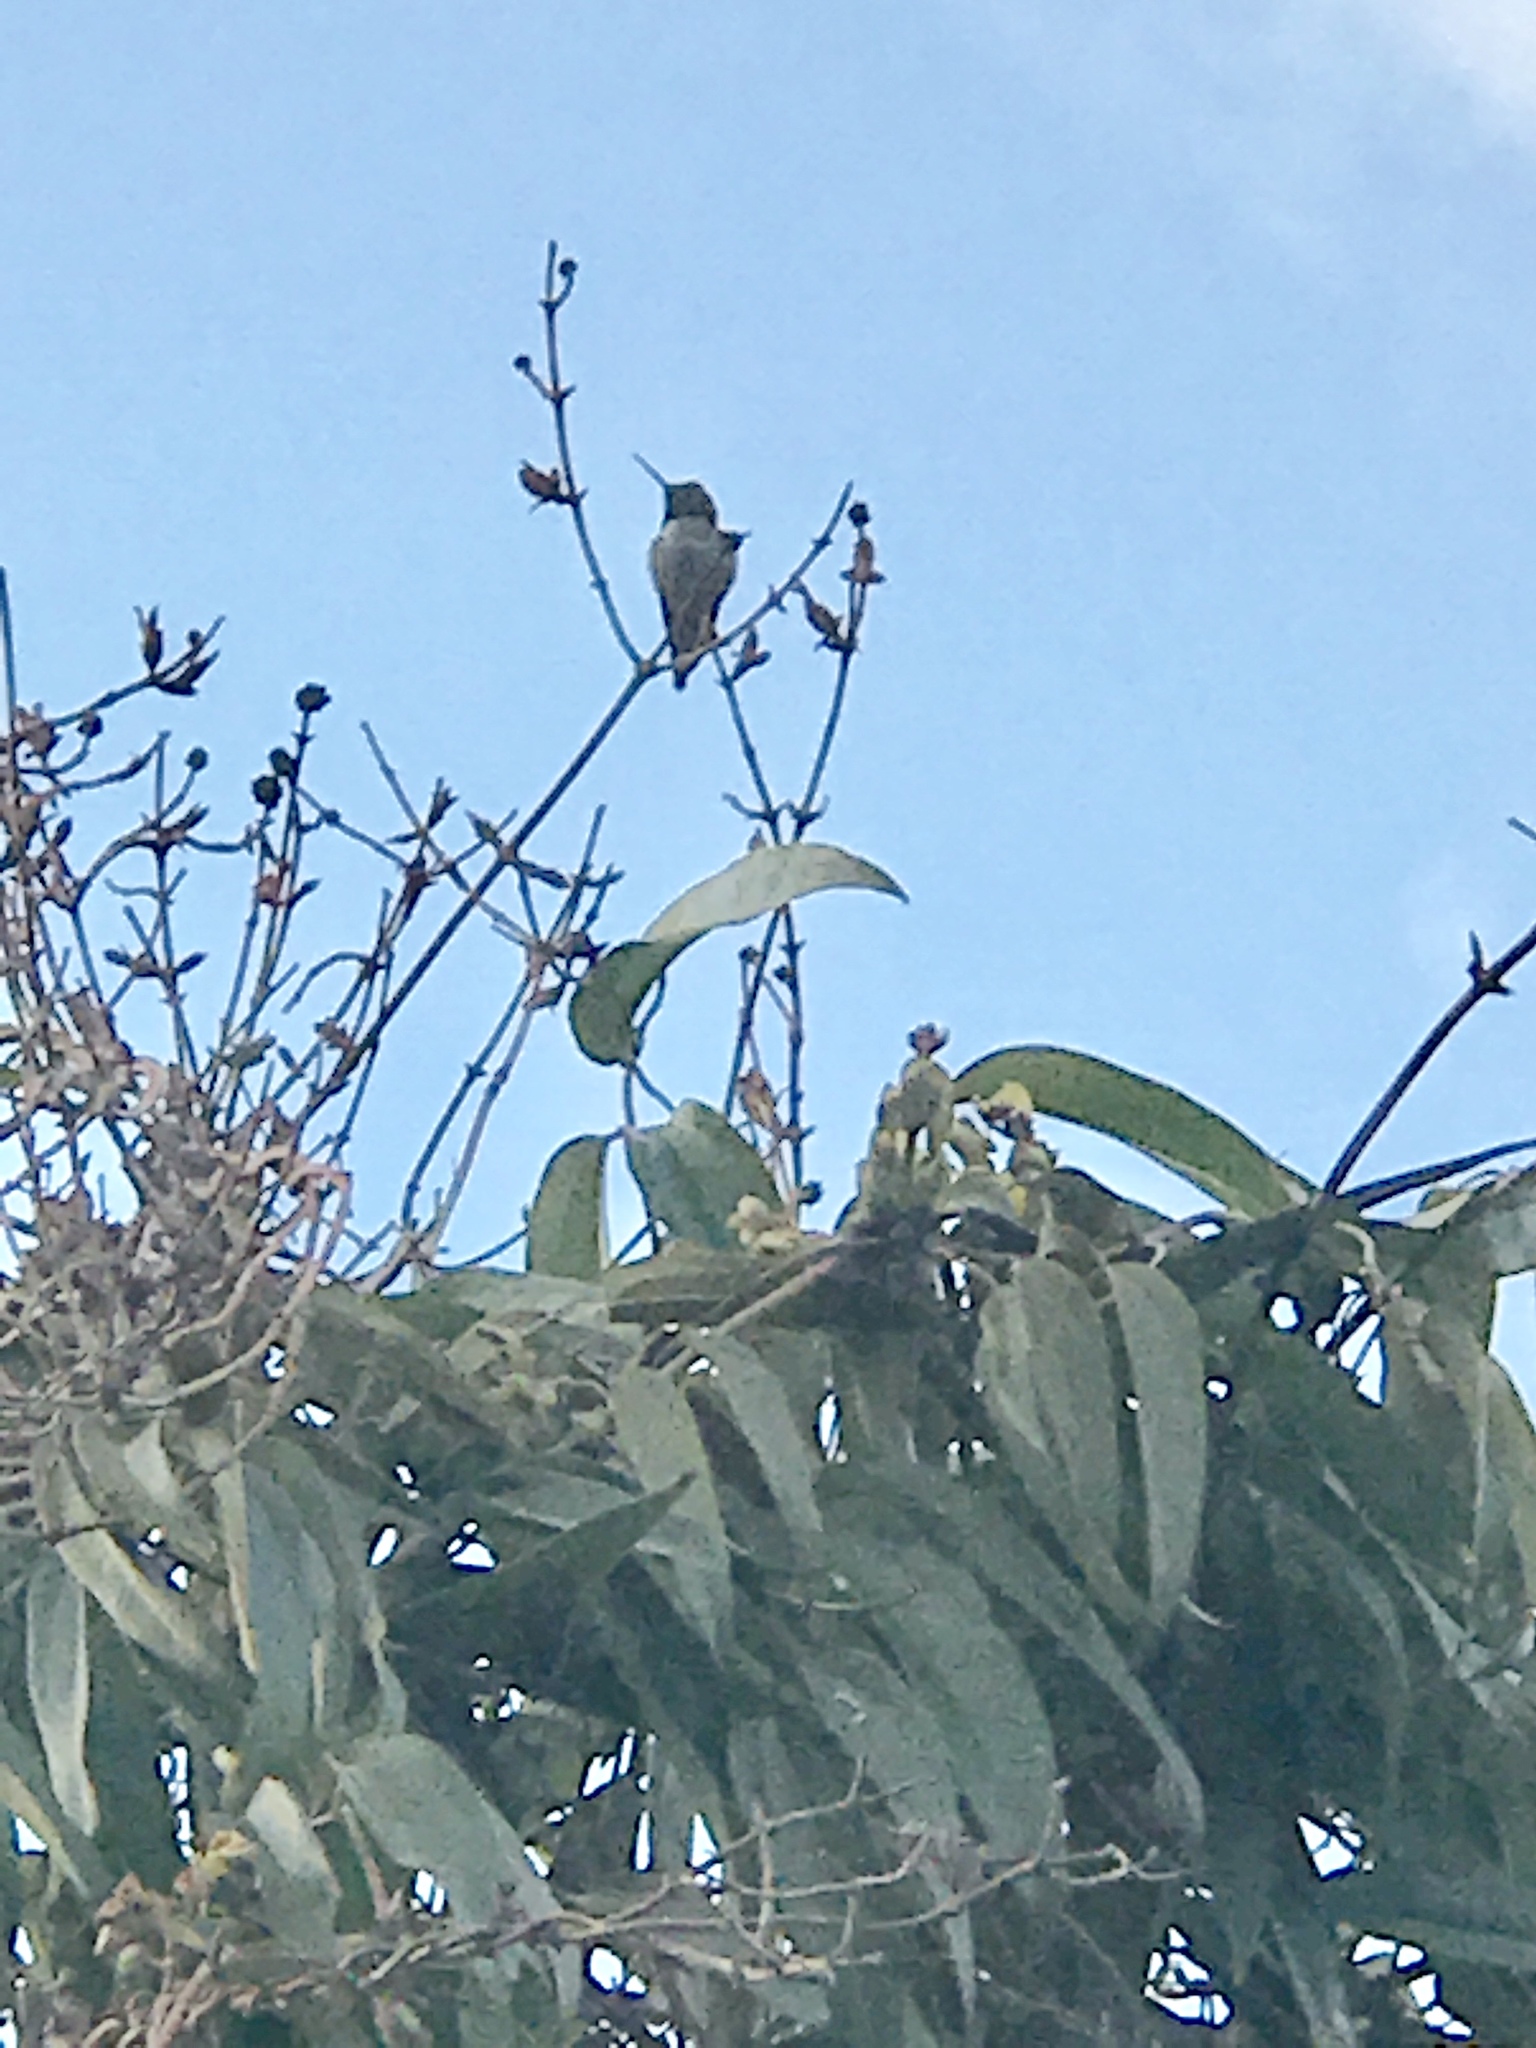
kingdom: Animalia
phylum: Chordata
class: Aves
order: Apodiformes
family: Trochilidae
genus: Calypte
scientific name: Calypte anna
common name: Anna's hummingbird
